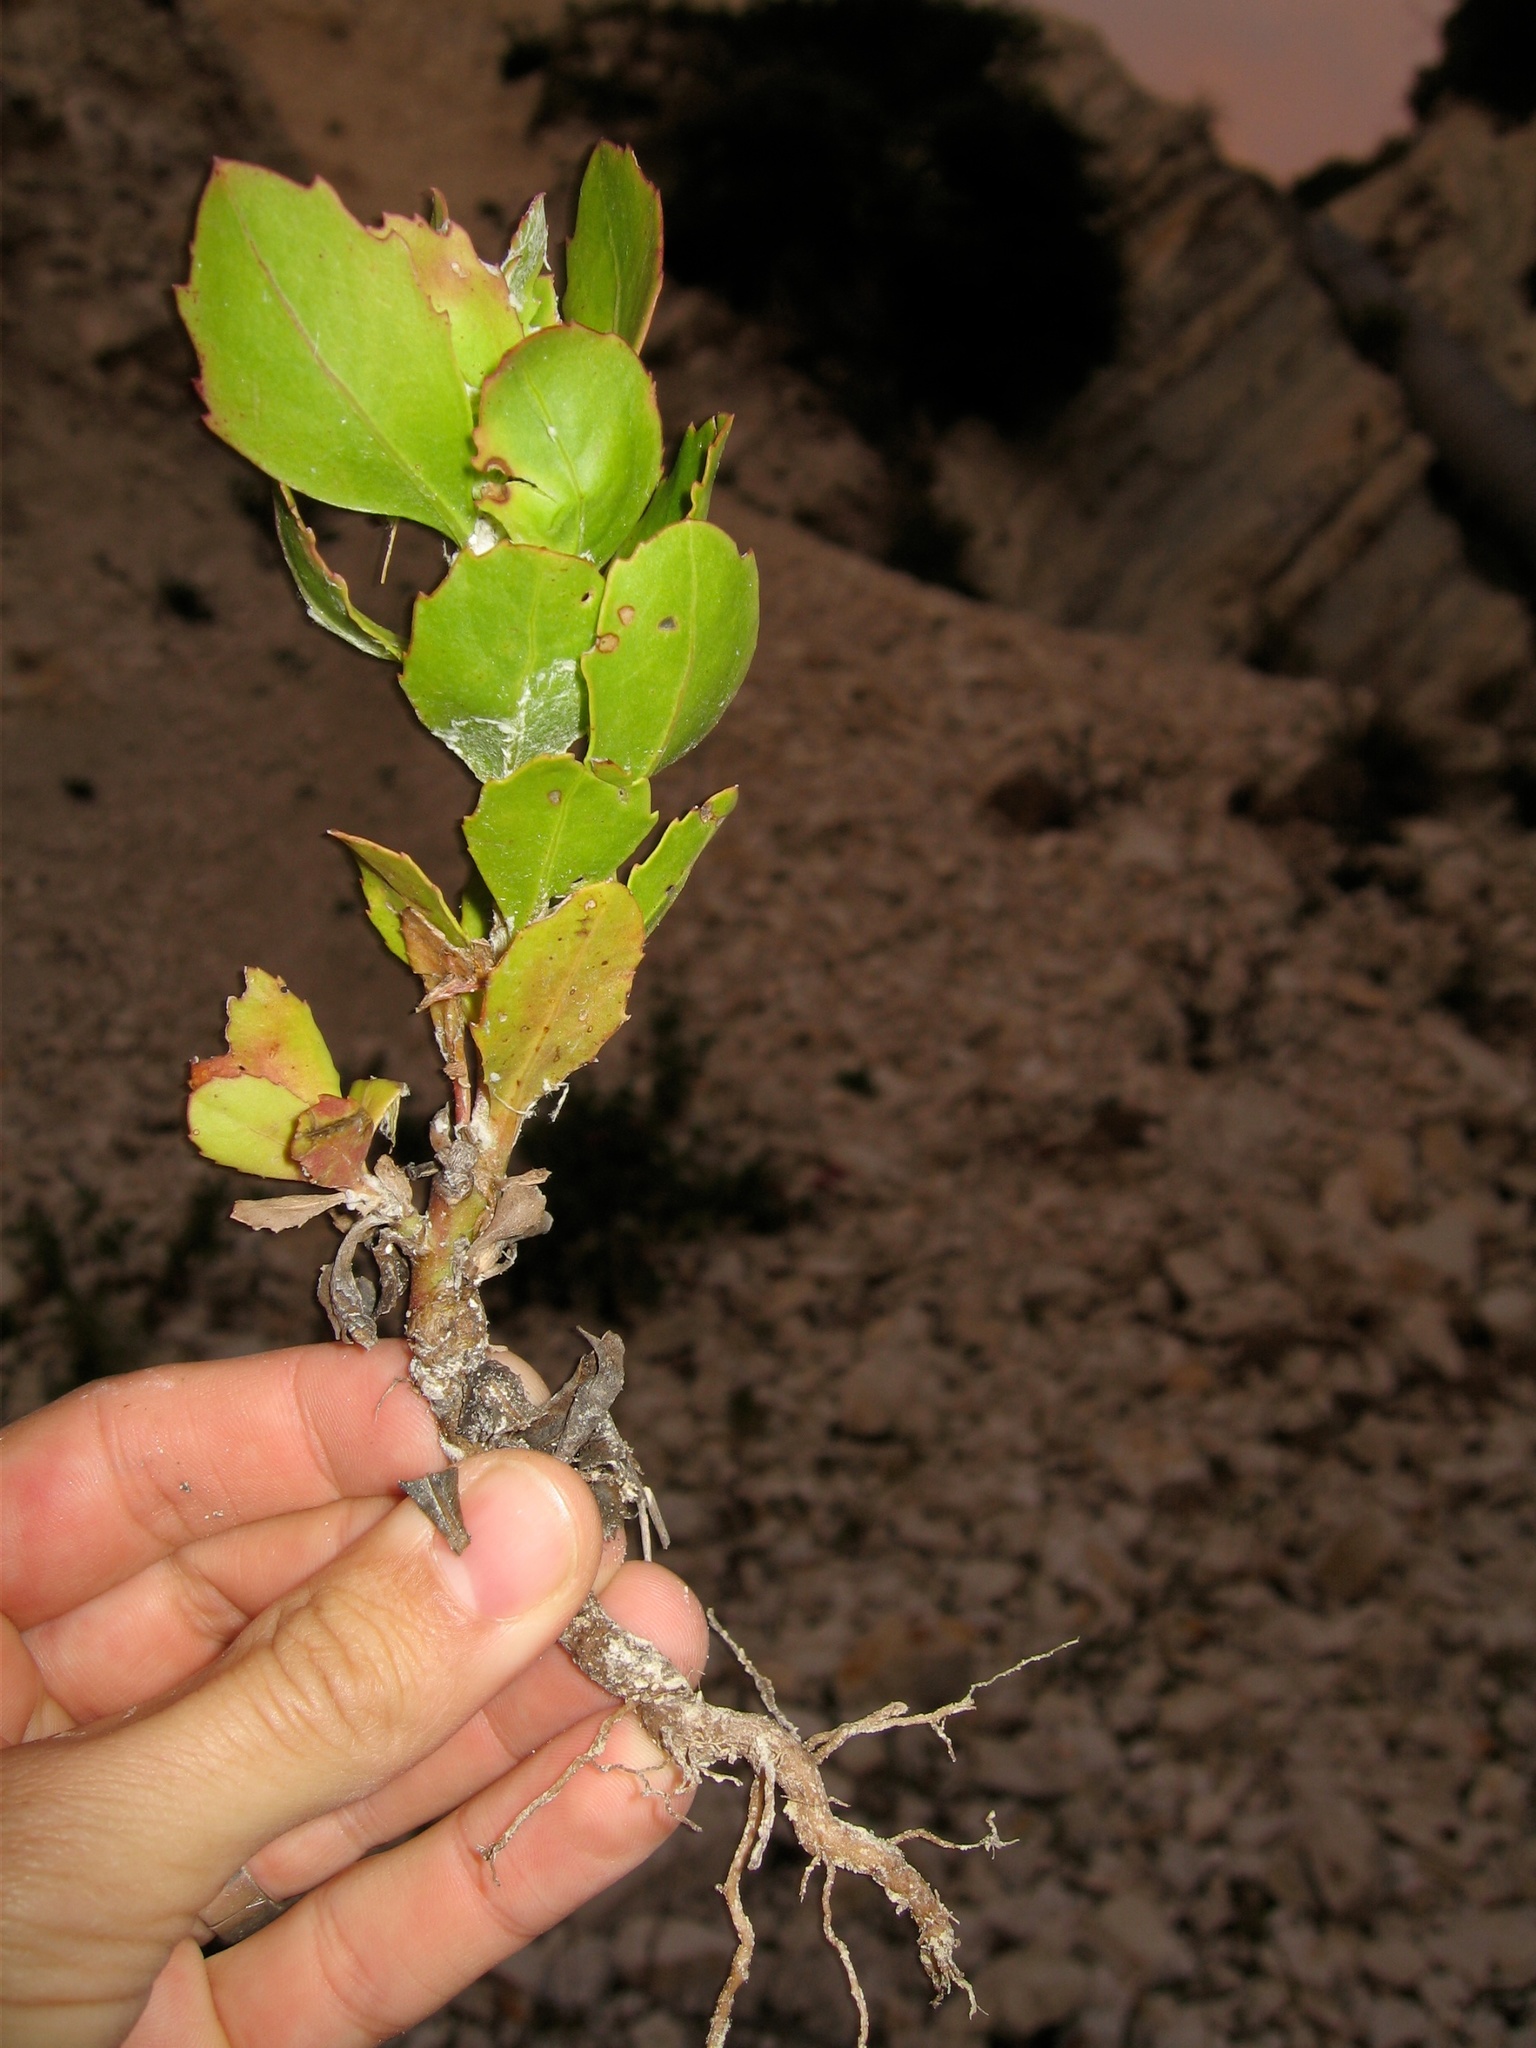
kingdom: Plantae
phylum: Tracheophyta
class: Magnoliopsida
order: Asterales
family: Asteraceae
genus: Osteospermum
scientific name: Osteospermum moniliferum
